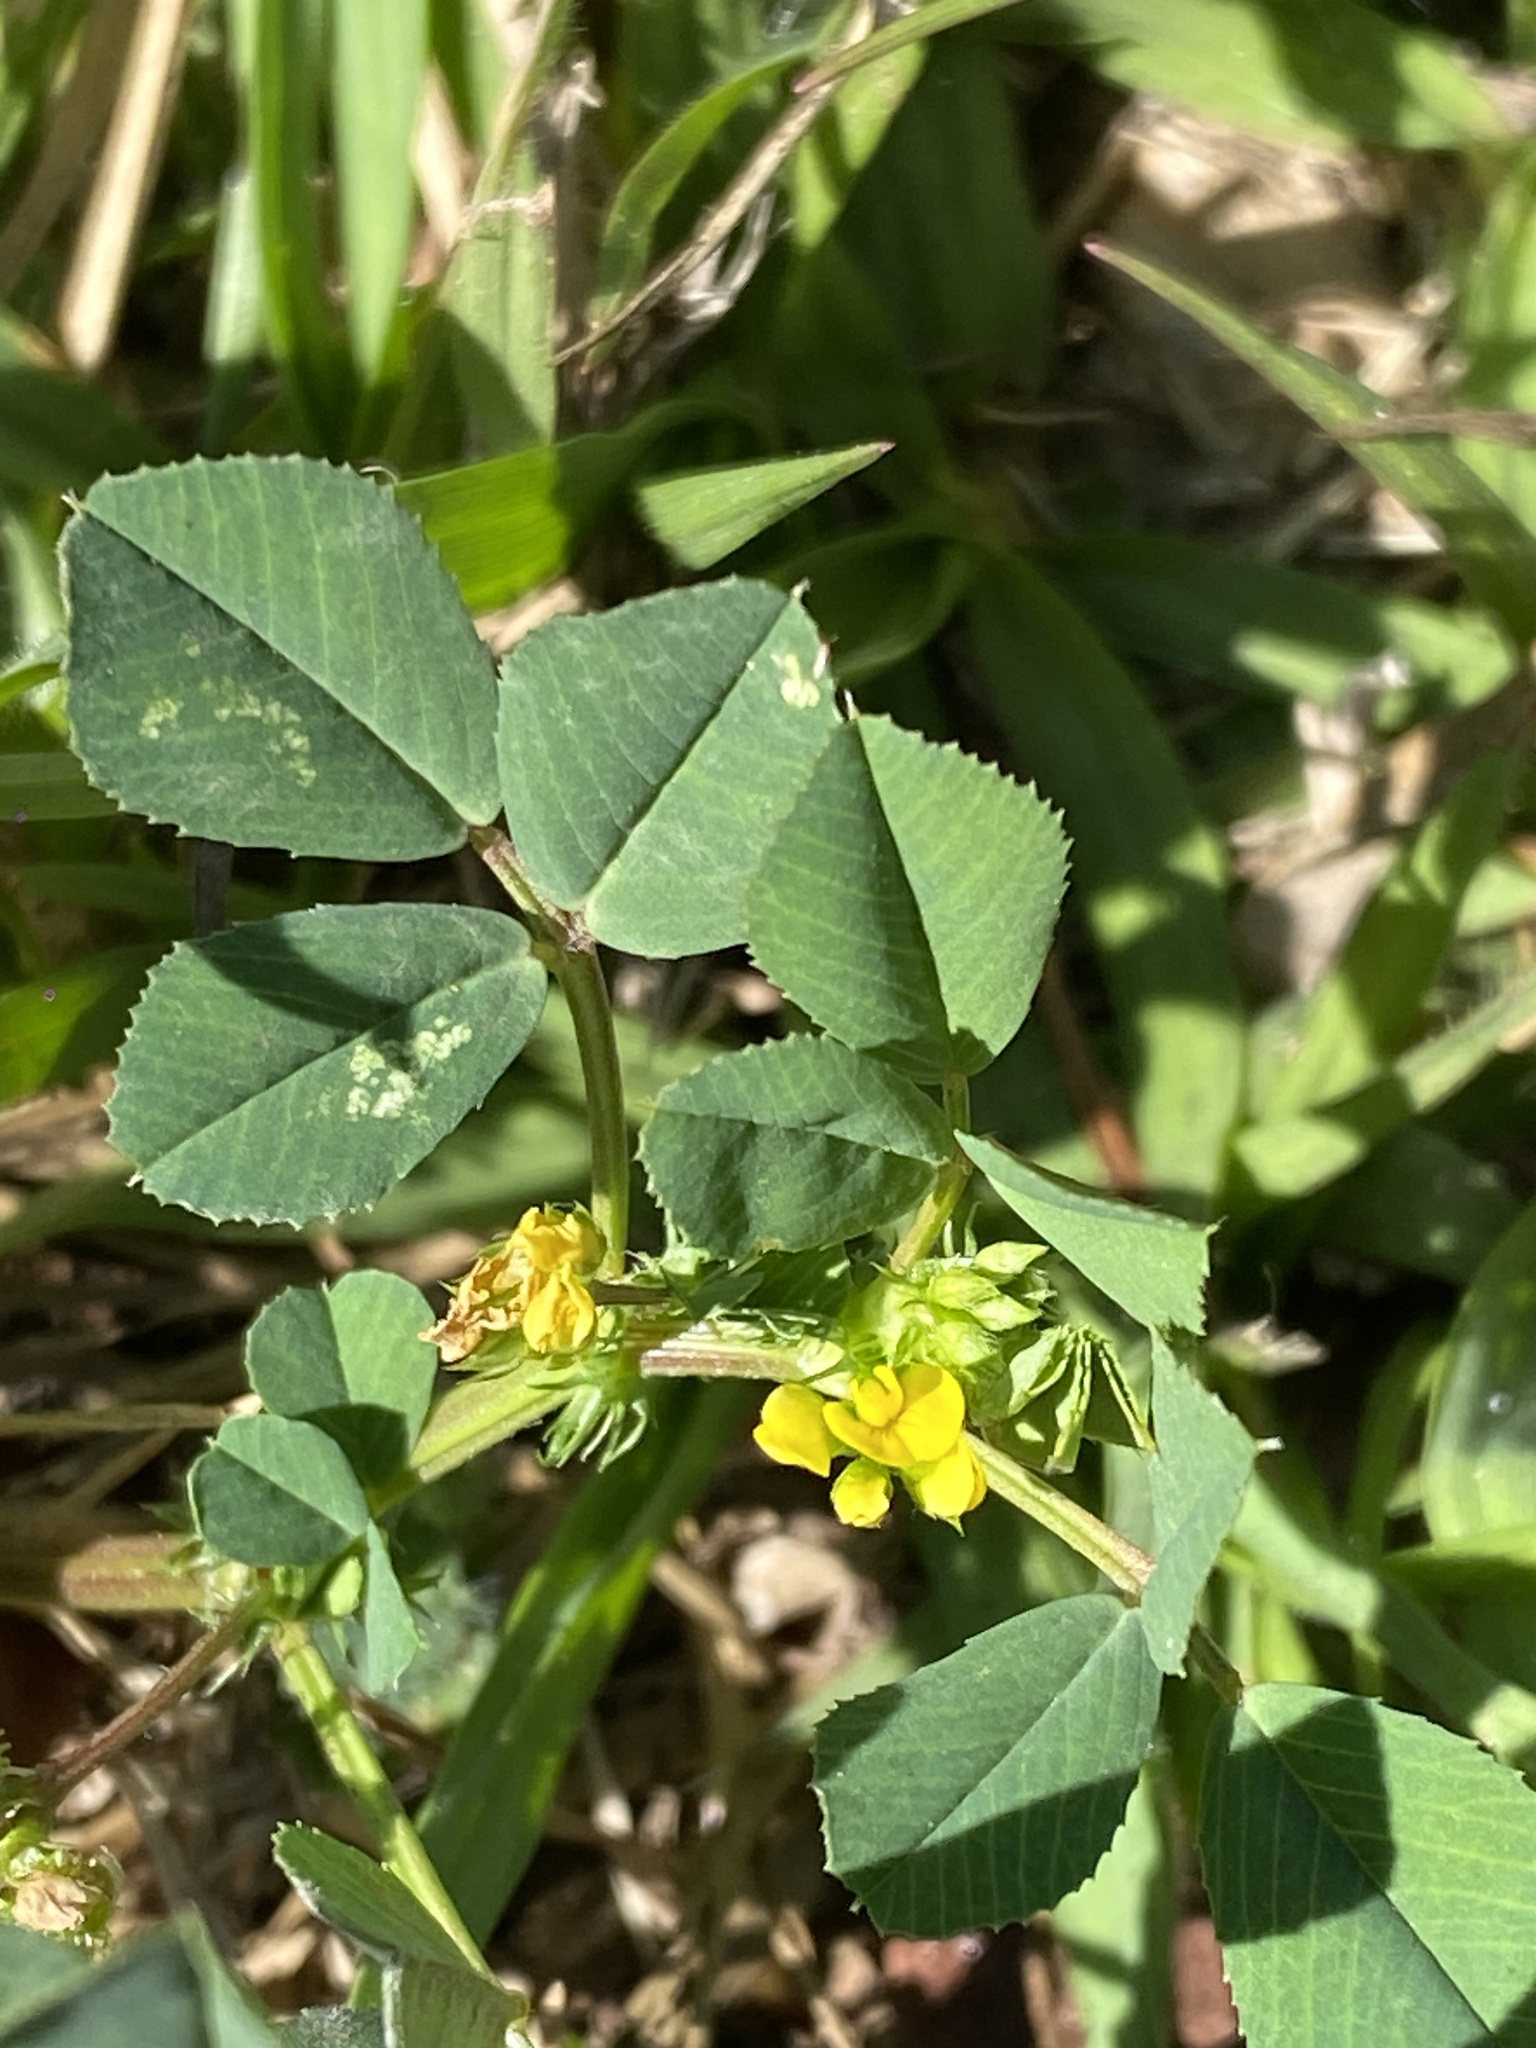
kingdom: Plantae
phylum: Tracheophyta
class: Magnoliopsida
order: Fabales
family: Fabaceae
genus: Medicago
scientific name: Medicago polymorpha
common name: Burclover
